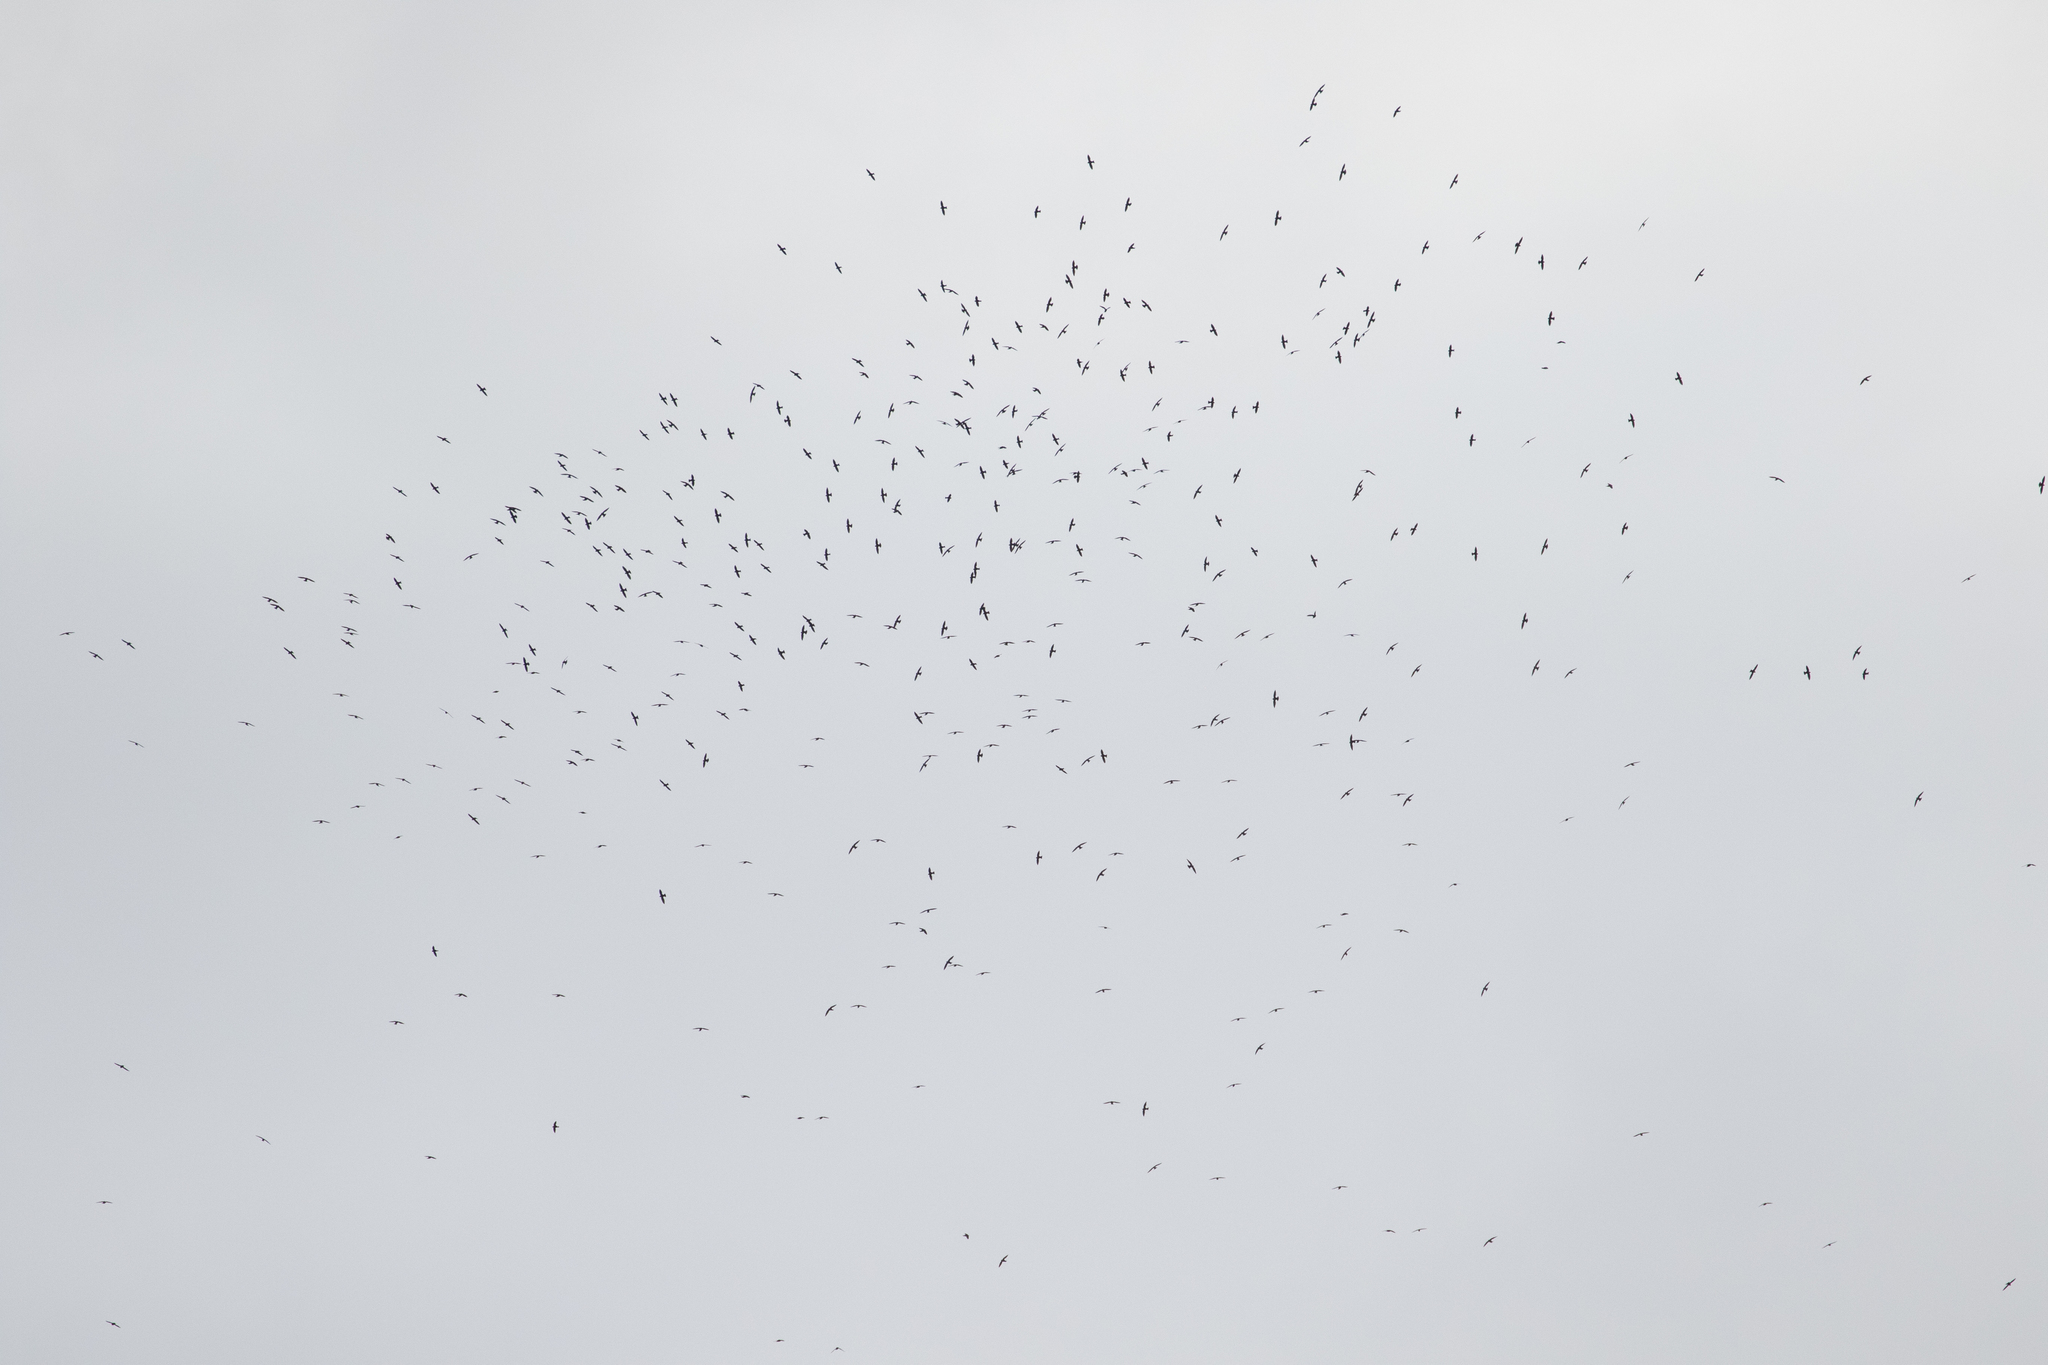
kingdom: Animalia
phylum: Chordata
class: Aves
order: Apodiformes
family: Apodidae
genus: Streptoprocne
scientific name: Streptoprocne zonaris
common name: White-collared swift
